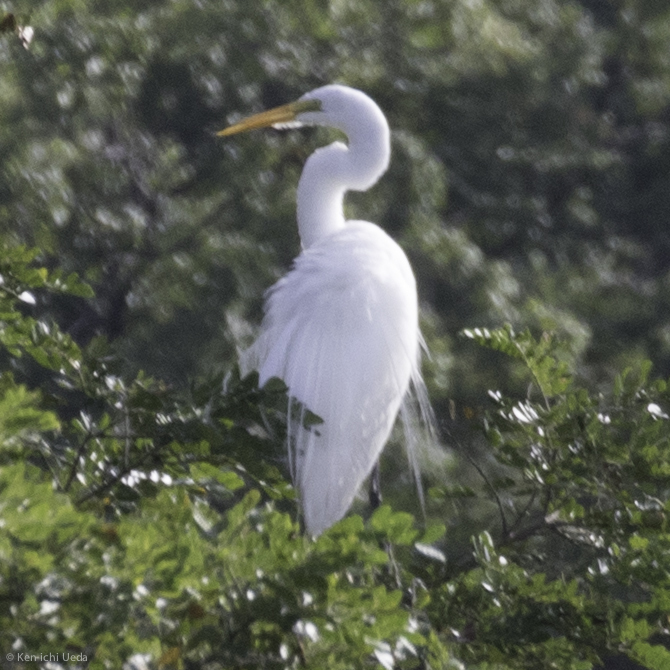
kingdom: Animalia
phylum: Chordata
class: Aves
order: Pelecaniformes
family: Ardeidae
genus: Ardea
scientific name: Ardea alba
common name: Great egret
